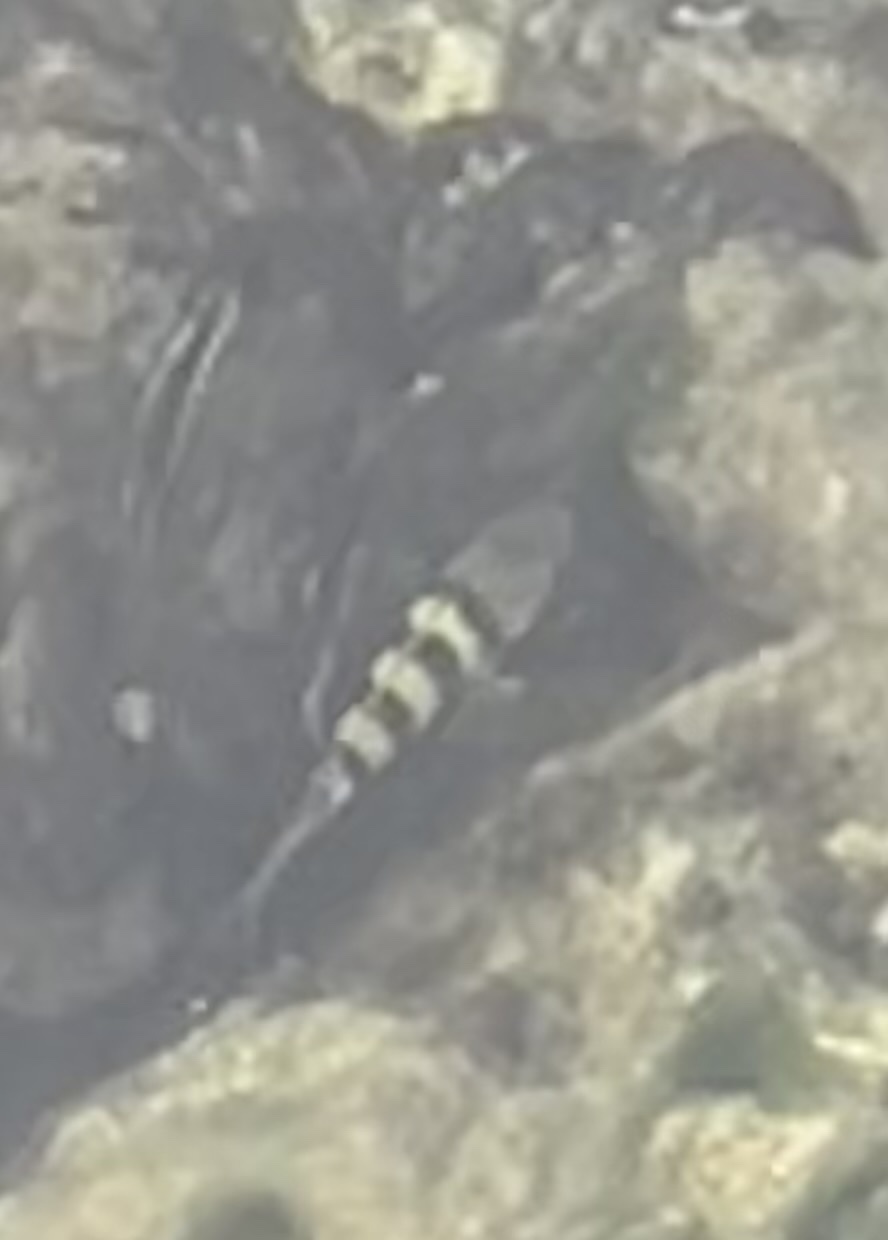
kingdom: Animalia
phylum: Chordata
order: Perciformes
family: Pomacentridae
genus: Abudefduf
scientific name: Abudefduf saxatilis
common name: Sergeant major
